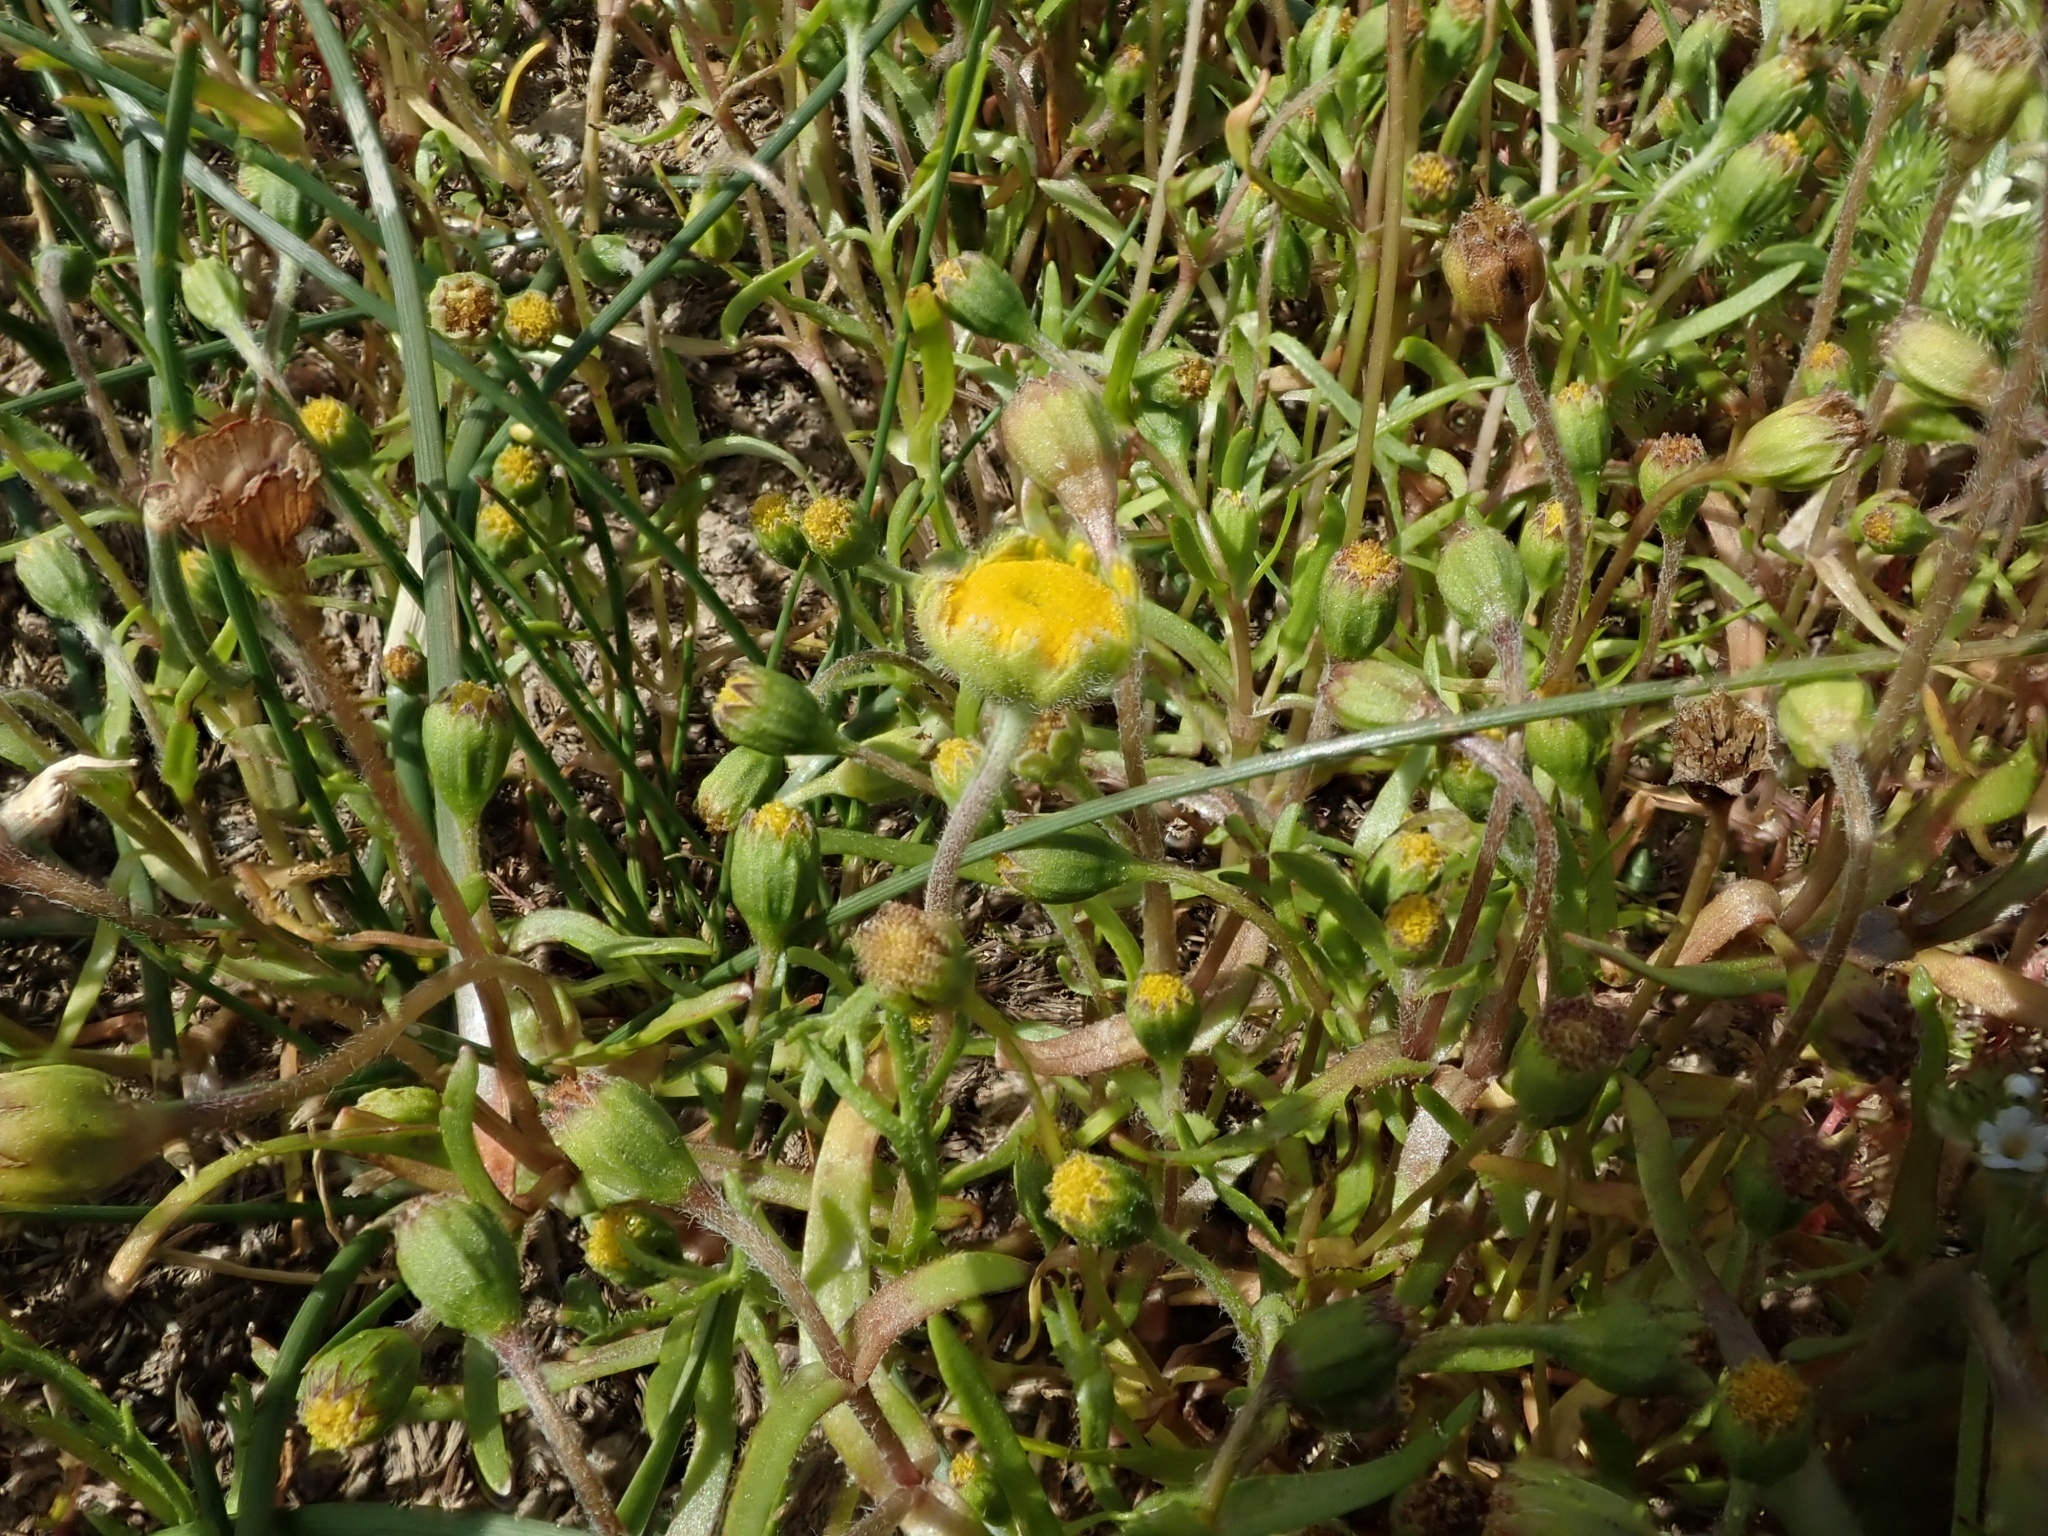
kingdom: Plantae
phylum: Tracheophyta
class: Magnoliopsida
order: Asterales
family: Asteraceae
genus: Lasthenia
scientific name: Lasthenia glaberrima
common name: Smooth goldfields
